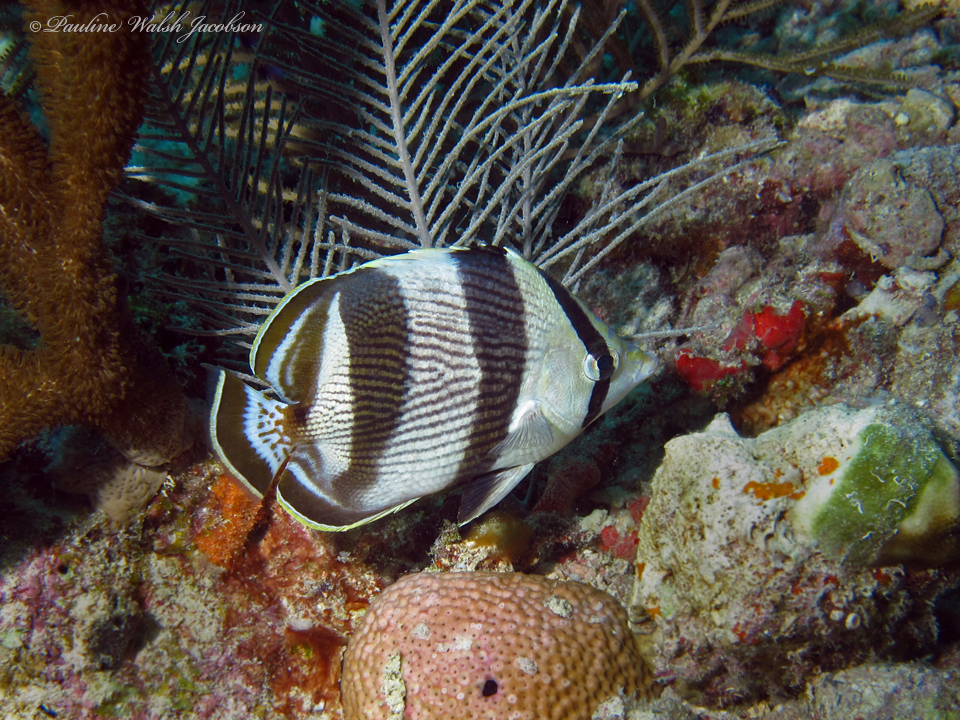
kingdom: Animalia
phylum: Chordata
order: Perciformes
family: Chaetodontidae
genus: Chaetodon
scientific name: Chaetodon striatus
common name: Banded butterflyfish
